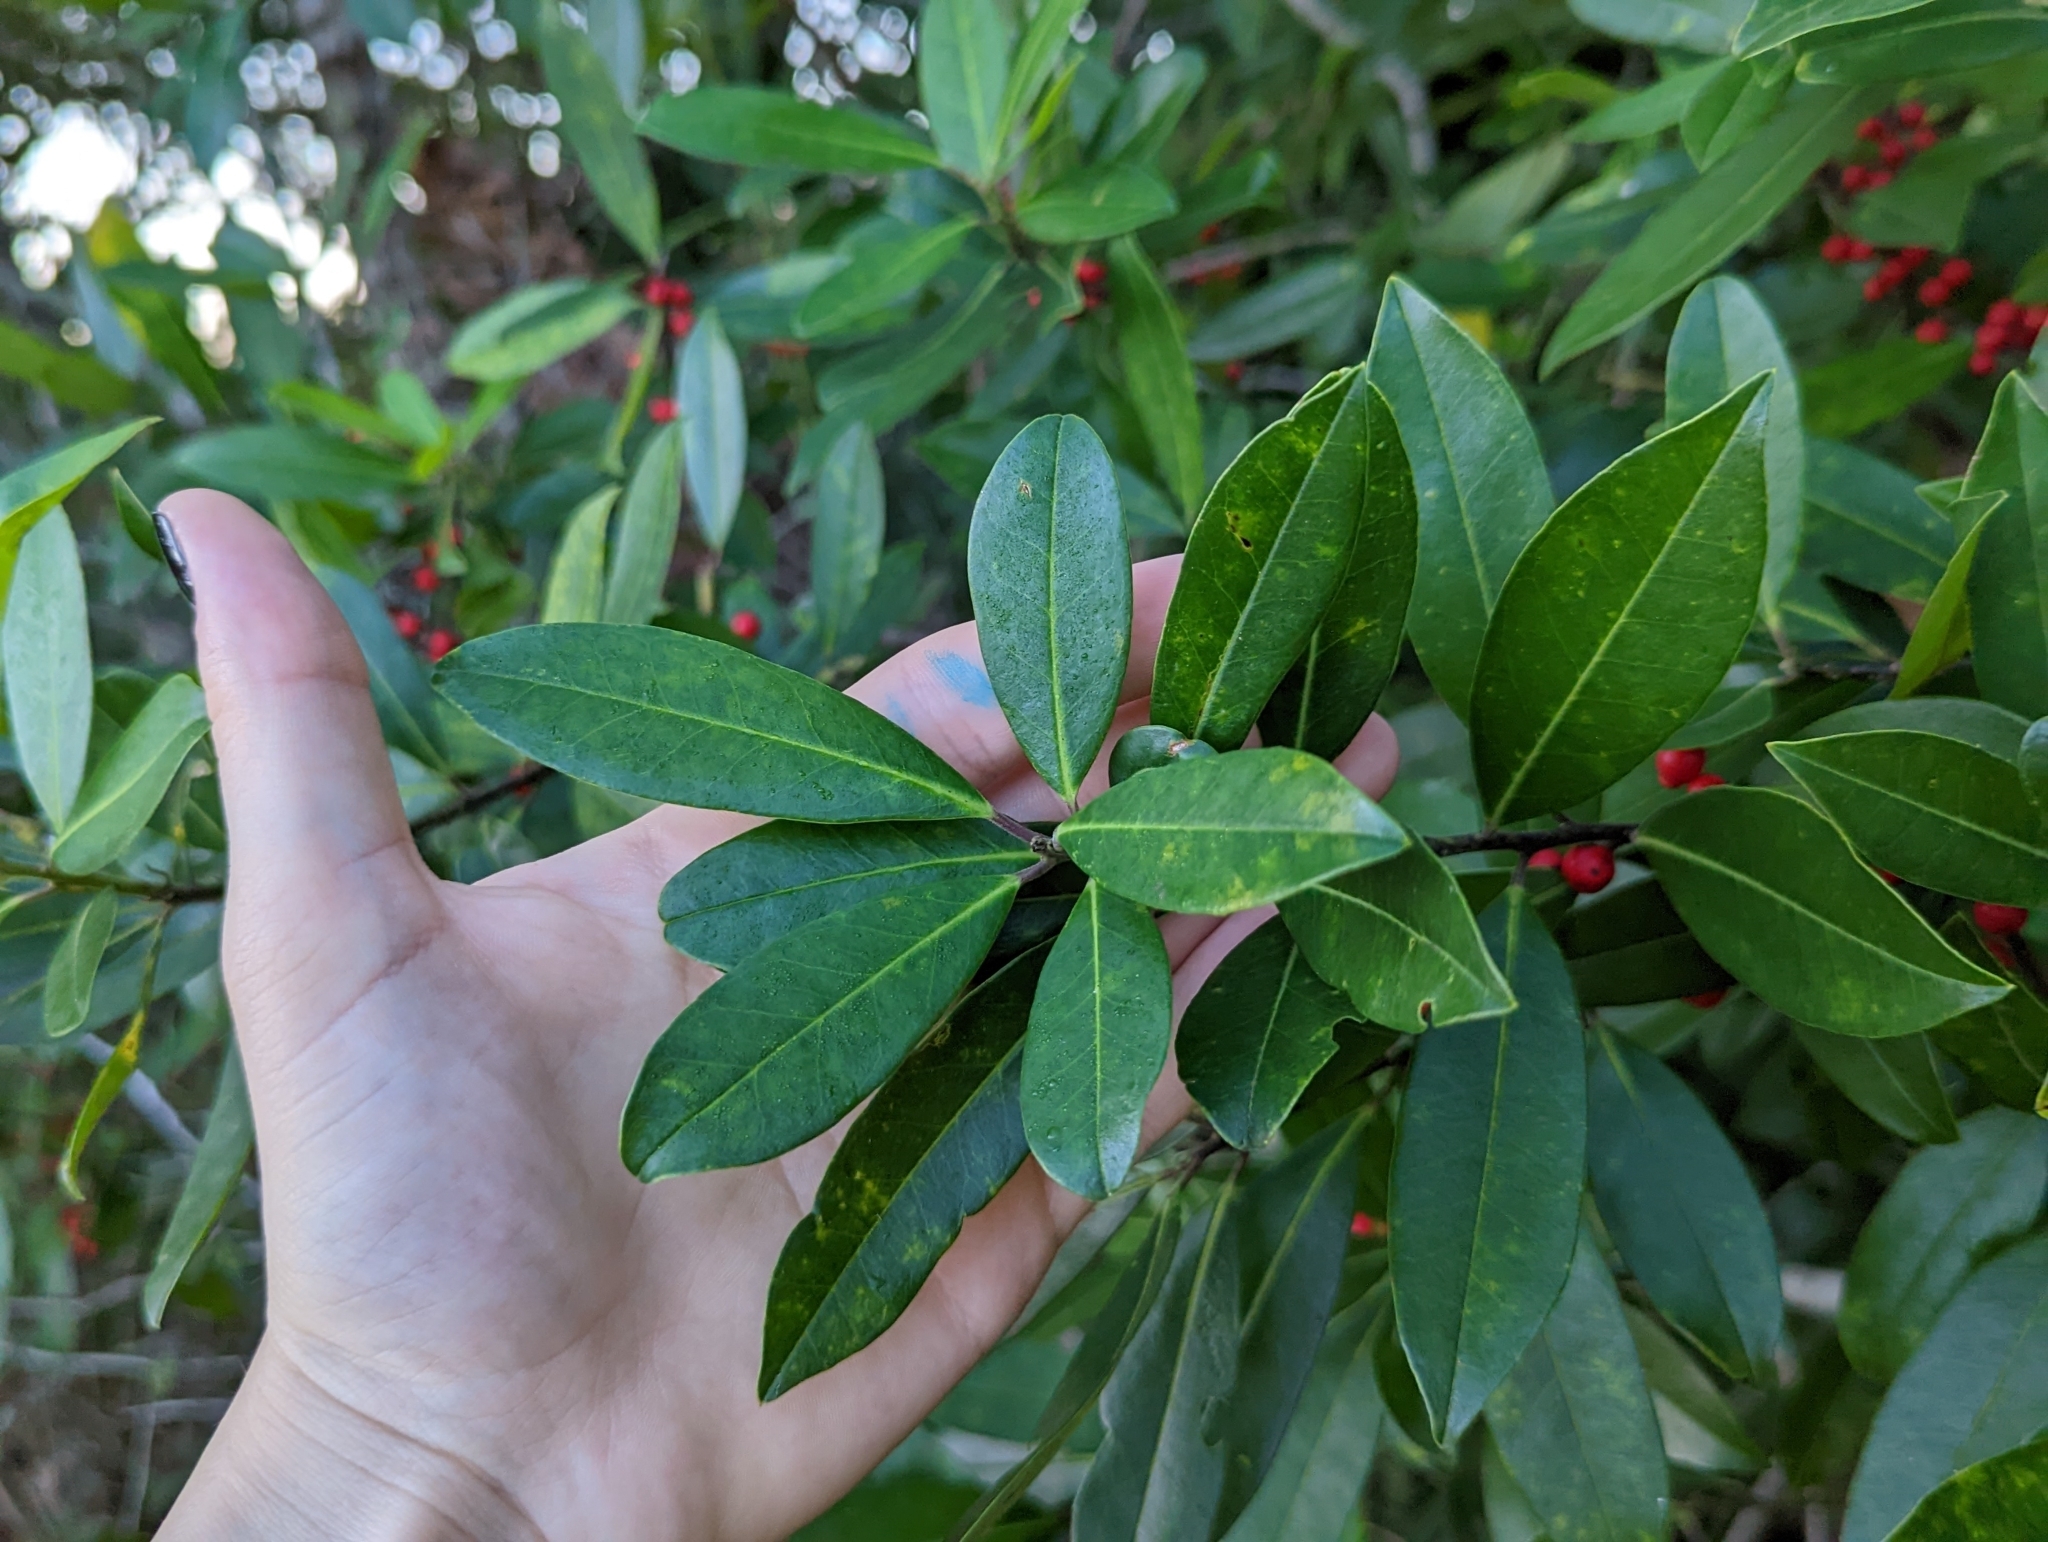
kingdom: Plantae
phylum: Tracheophyta
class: Magnoliopsida
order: Aquifoliales
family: Aquifoliaceae
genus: Ilex
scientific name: Ilex cassine
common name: Dahoon
